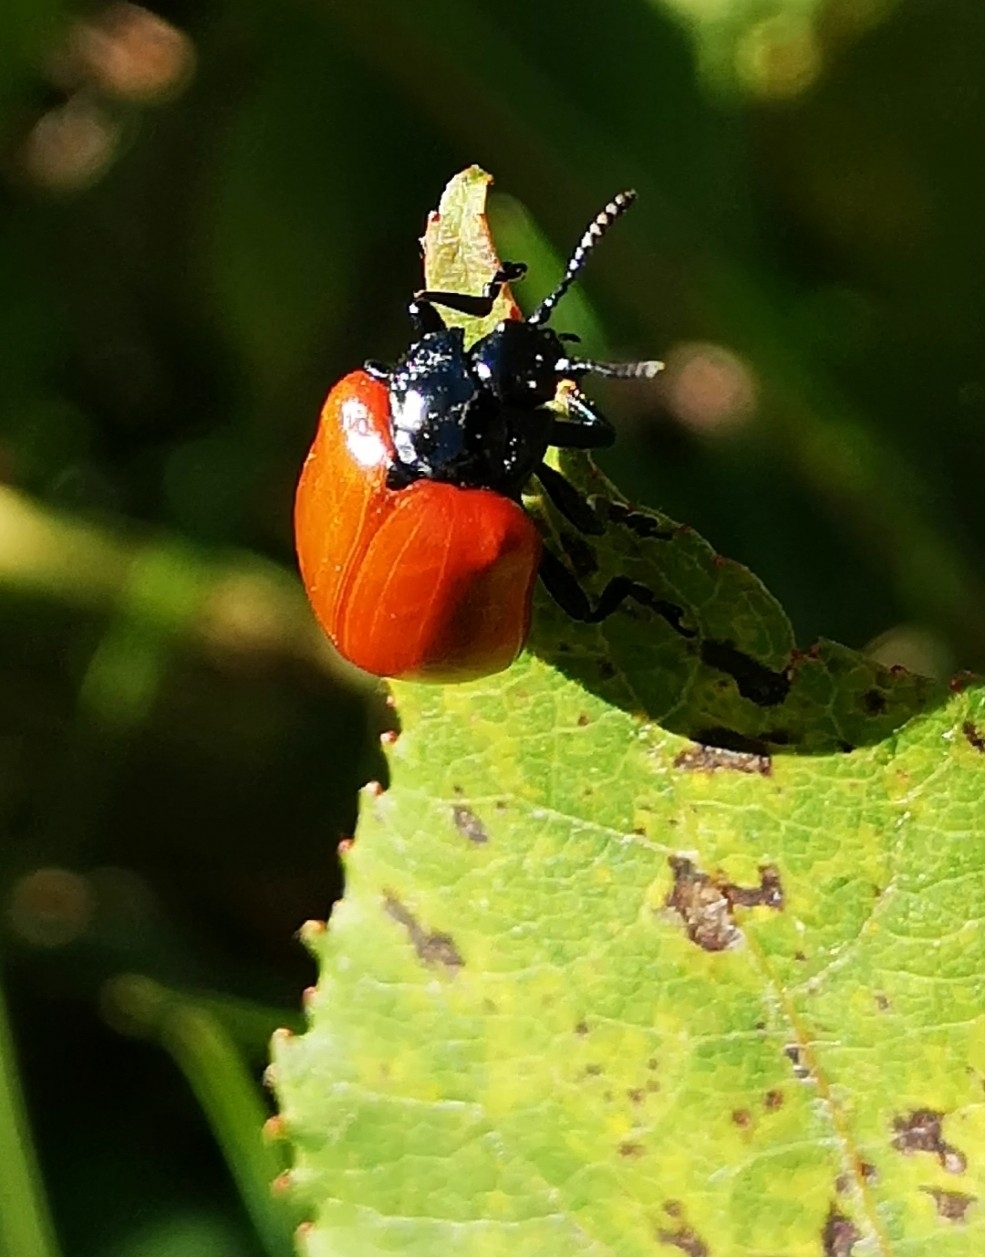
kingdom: Animalia
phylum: Arthropoda
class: Insecta
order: Coleoptera
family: Chrysomelidae
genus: Chrysomela
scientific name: Chrysomela populi
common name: Red poplar leaf beetle
